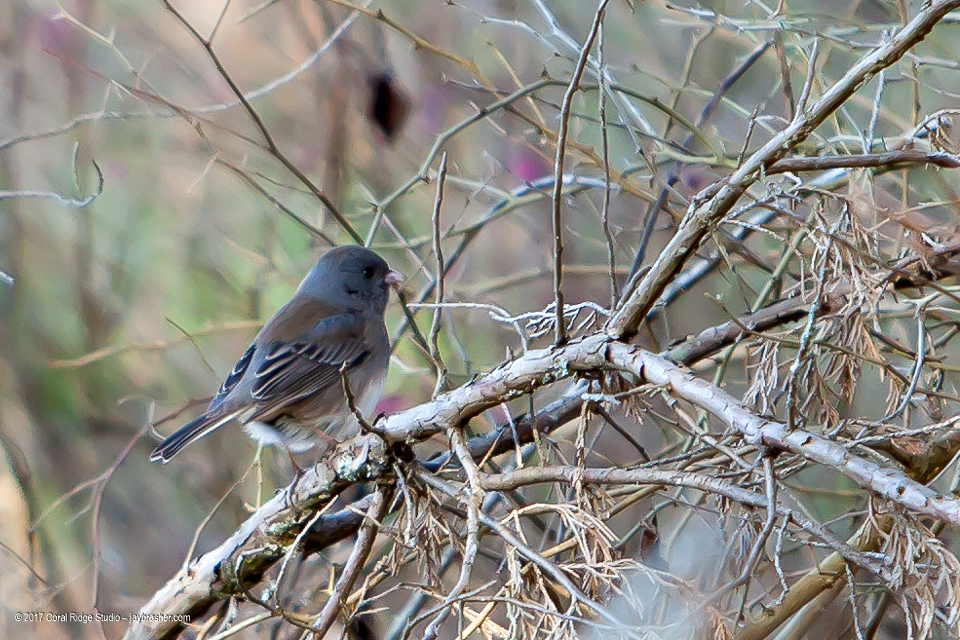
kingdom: Animalia
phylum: Chordata
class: Aves
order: Passeriformes
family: Passerellidae
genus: Junco
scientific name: Junco hyemalis
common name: Dark-eyed junco
